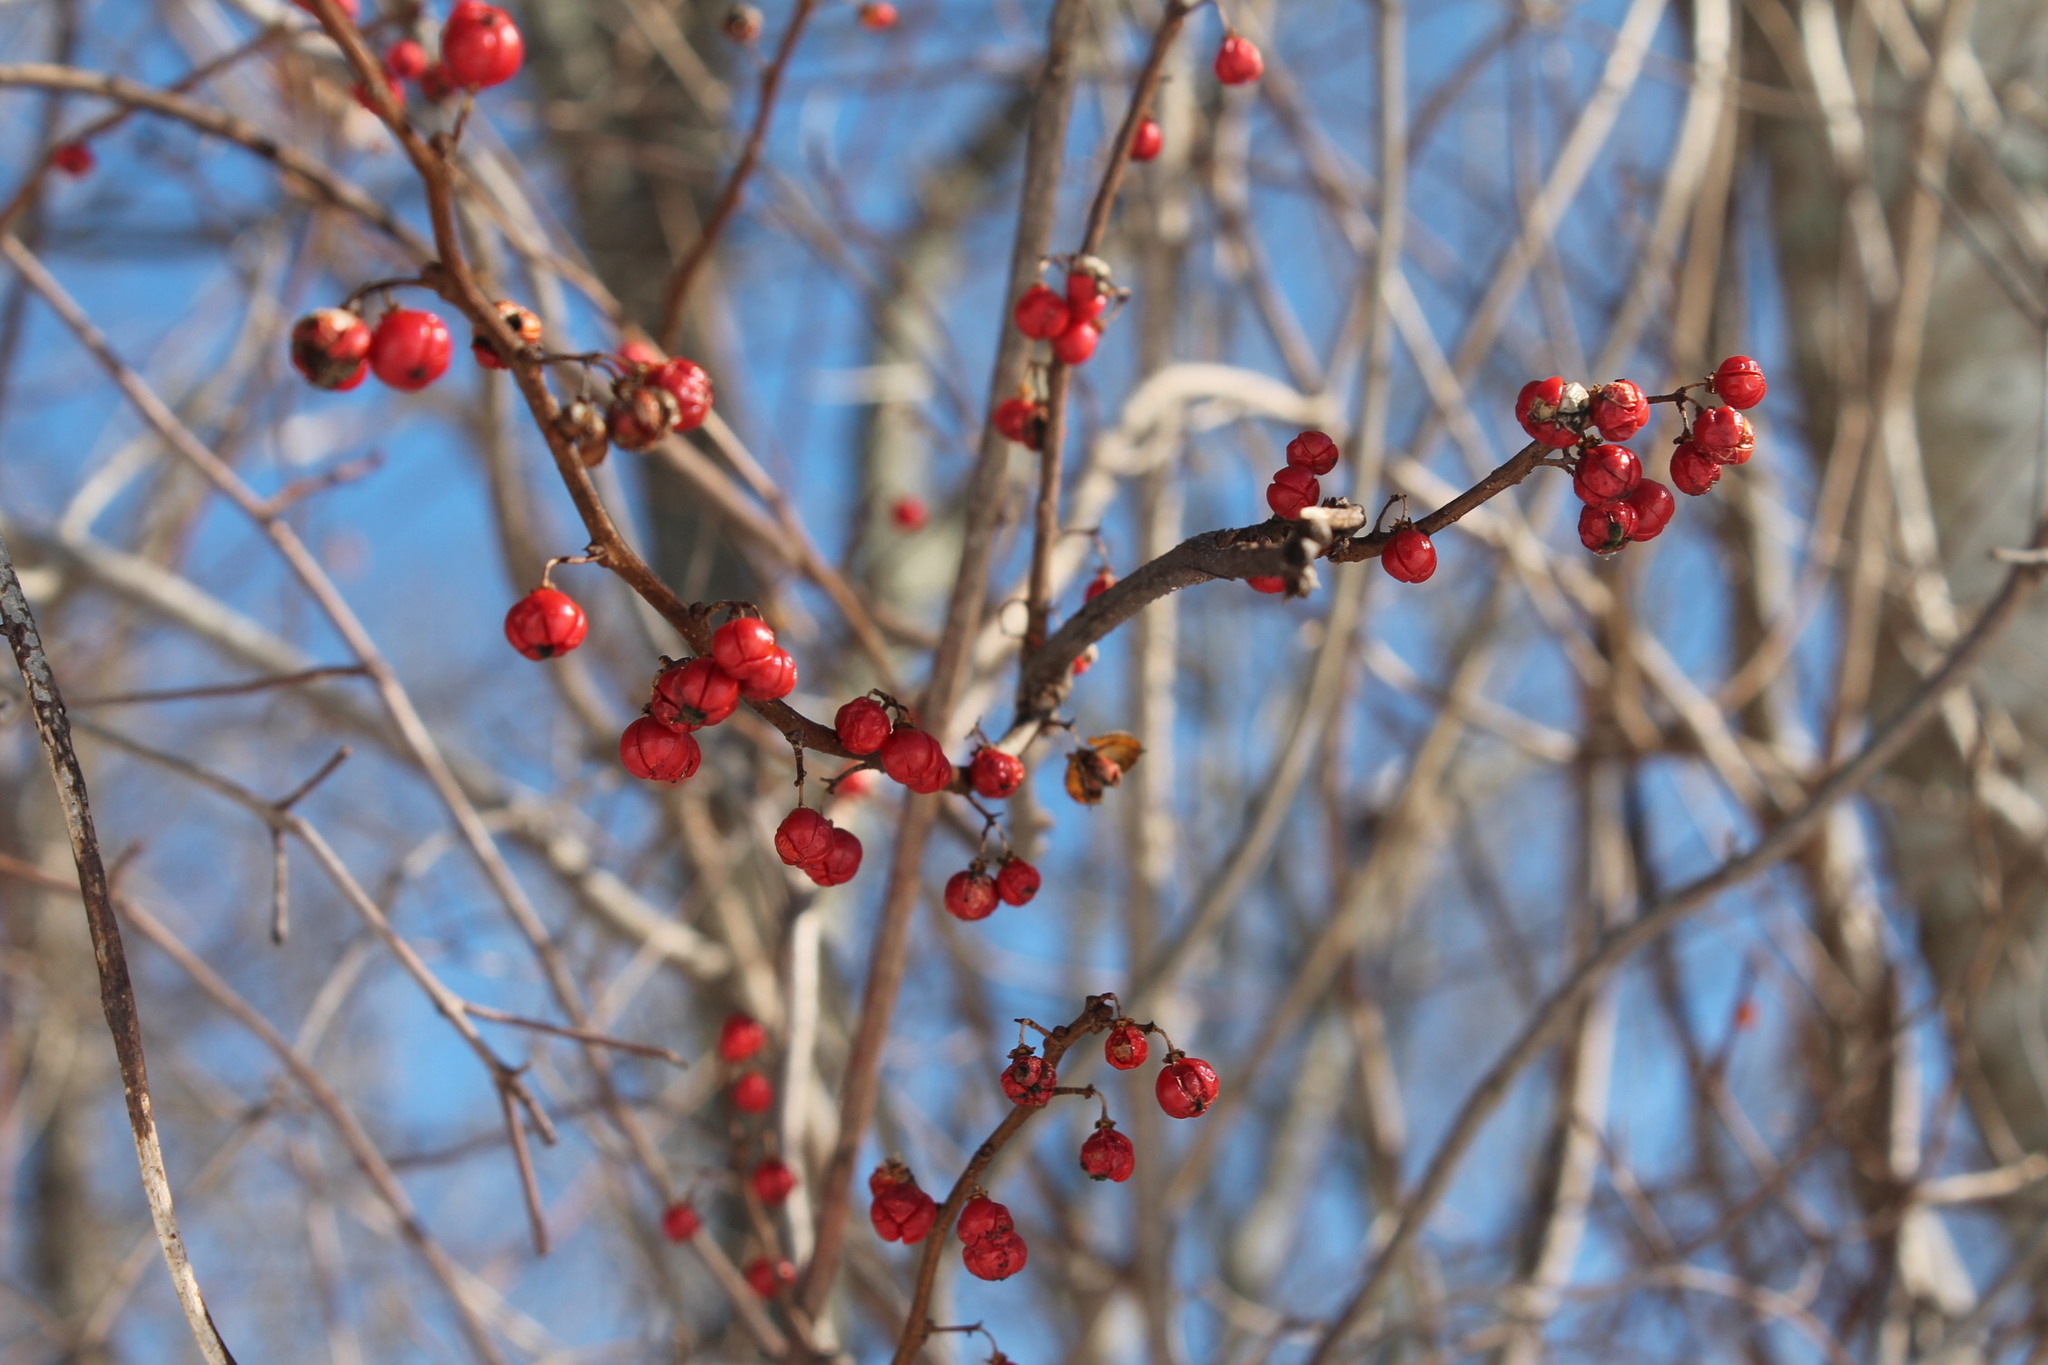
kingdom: Plantae
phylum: Tracheophyta
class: Magnoliopsida
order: Celastrales
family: Celastraceae
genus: Celastrus
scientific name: Celastrus orbiculatus
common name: Oriental bittersweet
